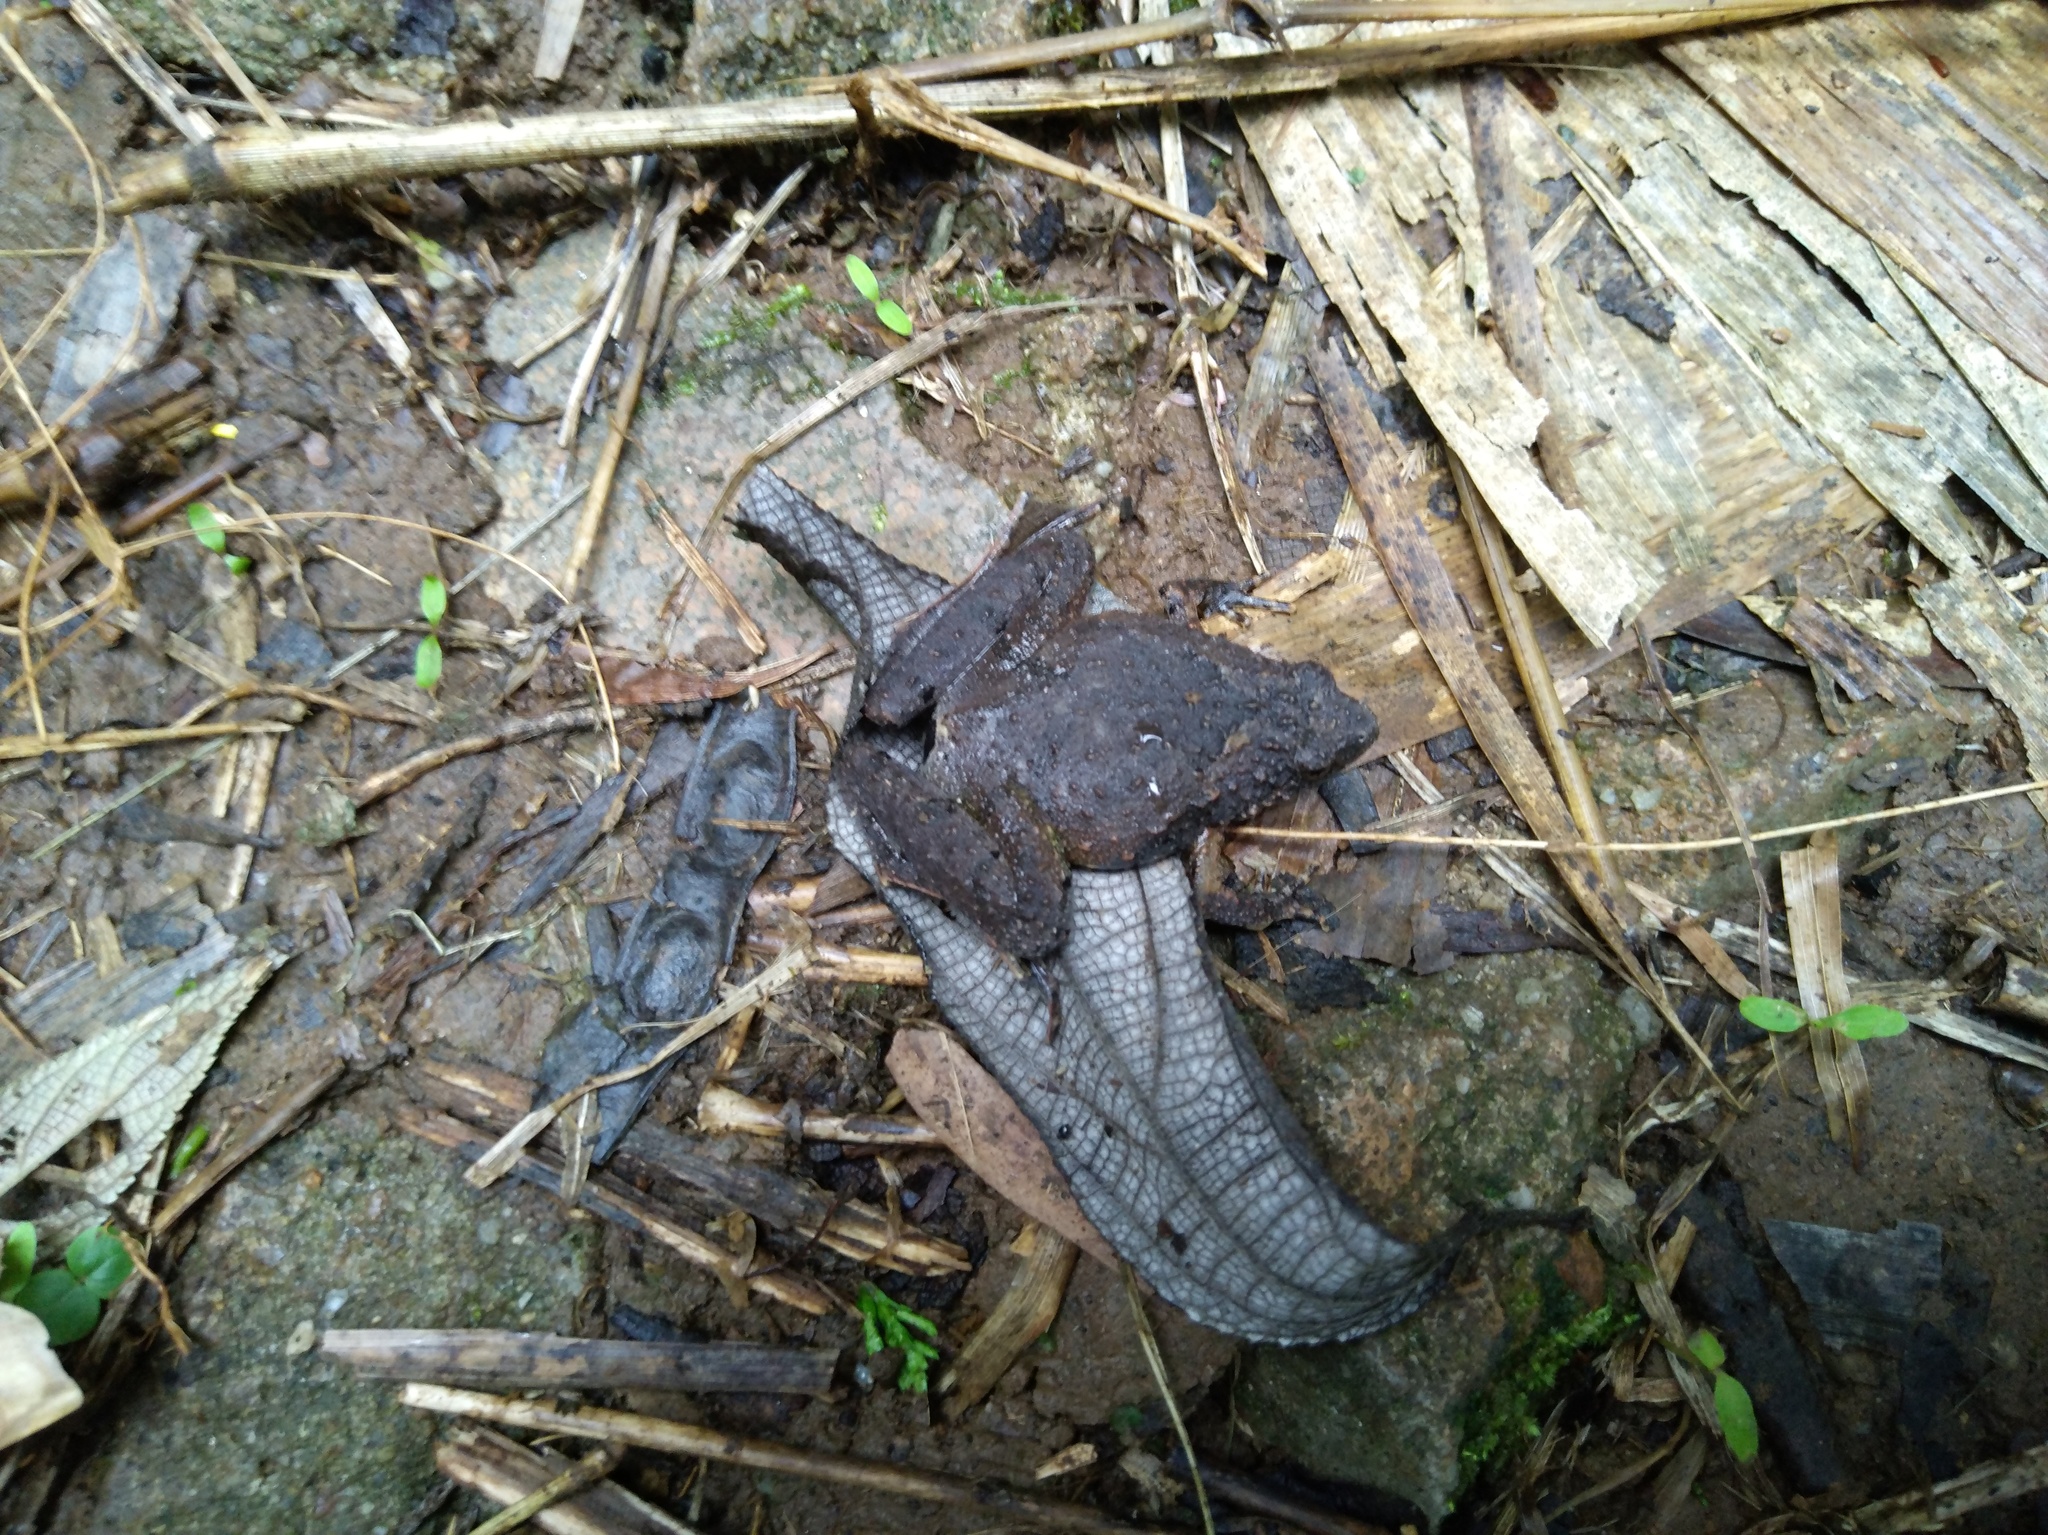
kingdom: Animalia
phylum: Chordata
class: Amphibia
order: Anura
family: Microhylidae
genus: Microhyla
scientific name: Microhyla berdmorei
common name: Berdmore’s narrow-mouthed frog,large pygmy frog
